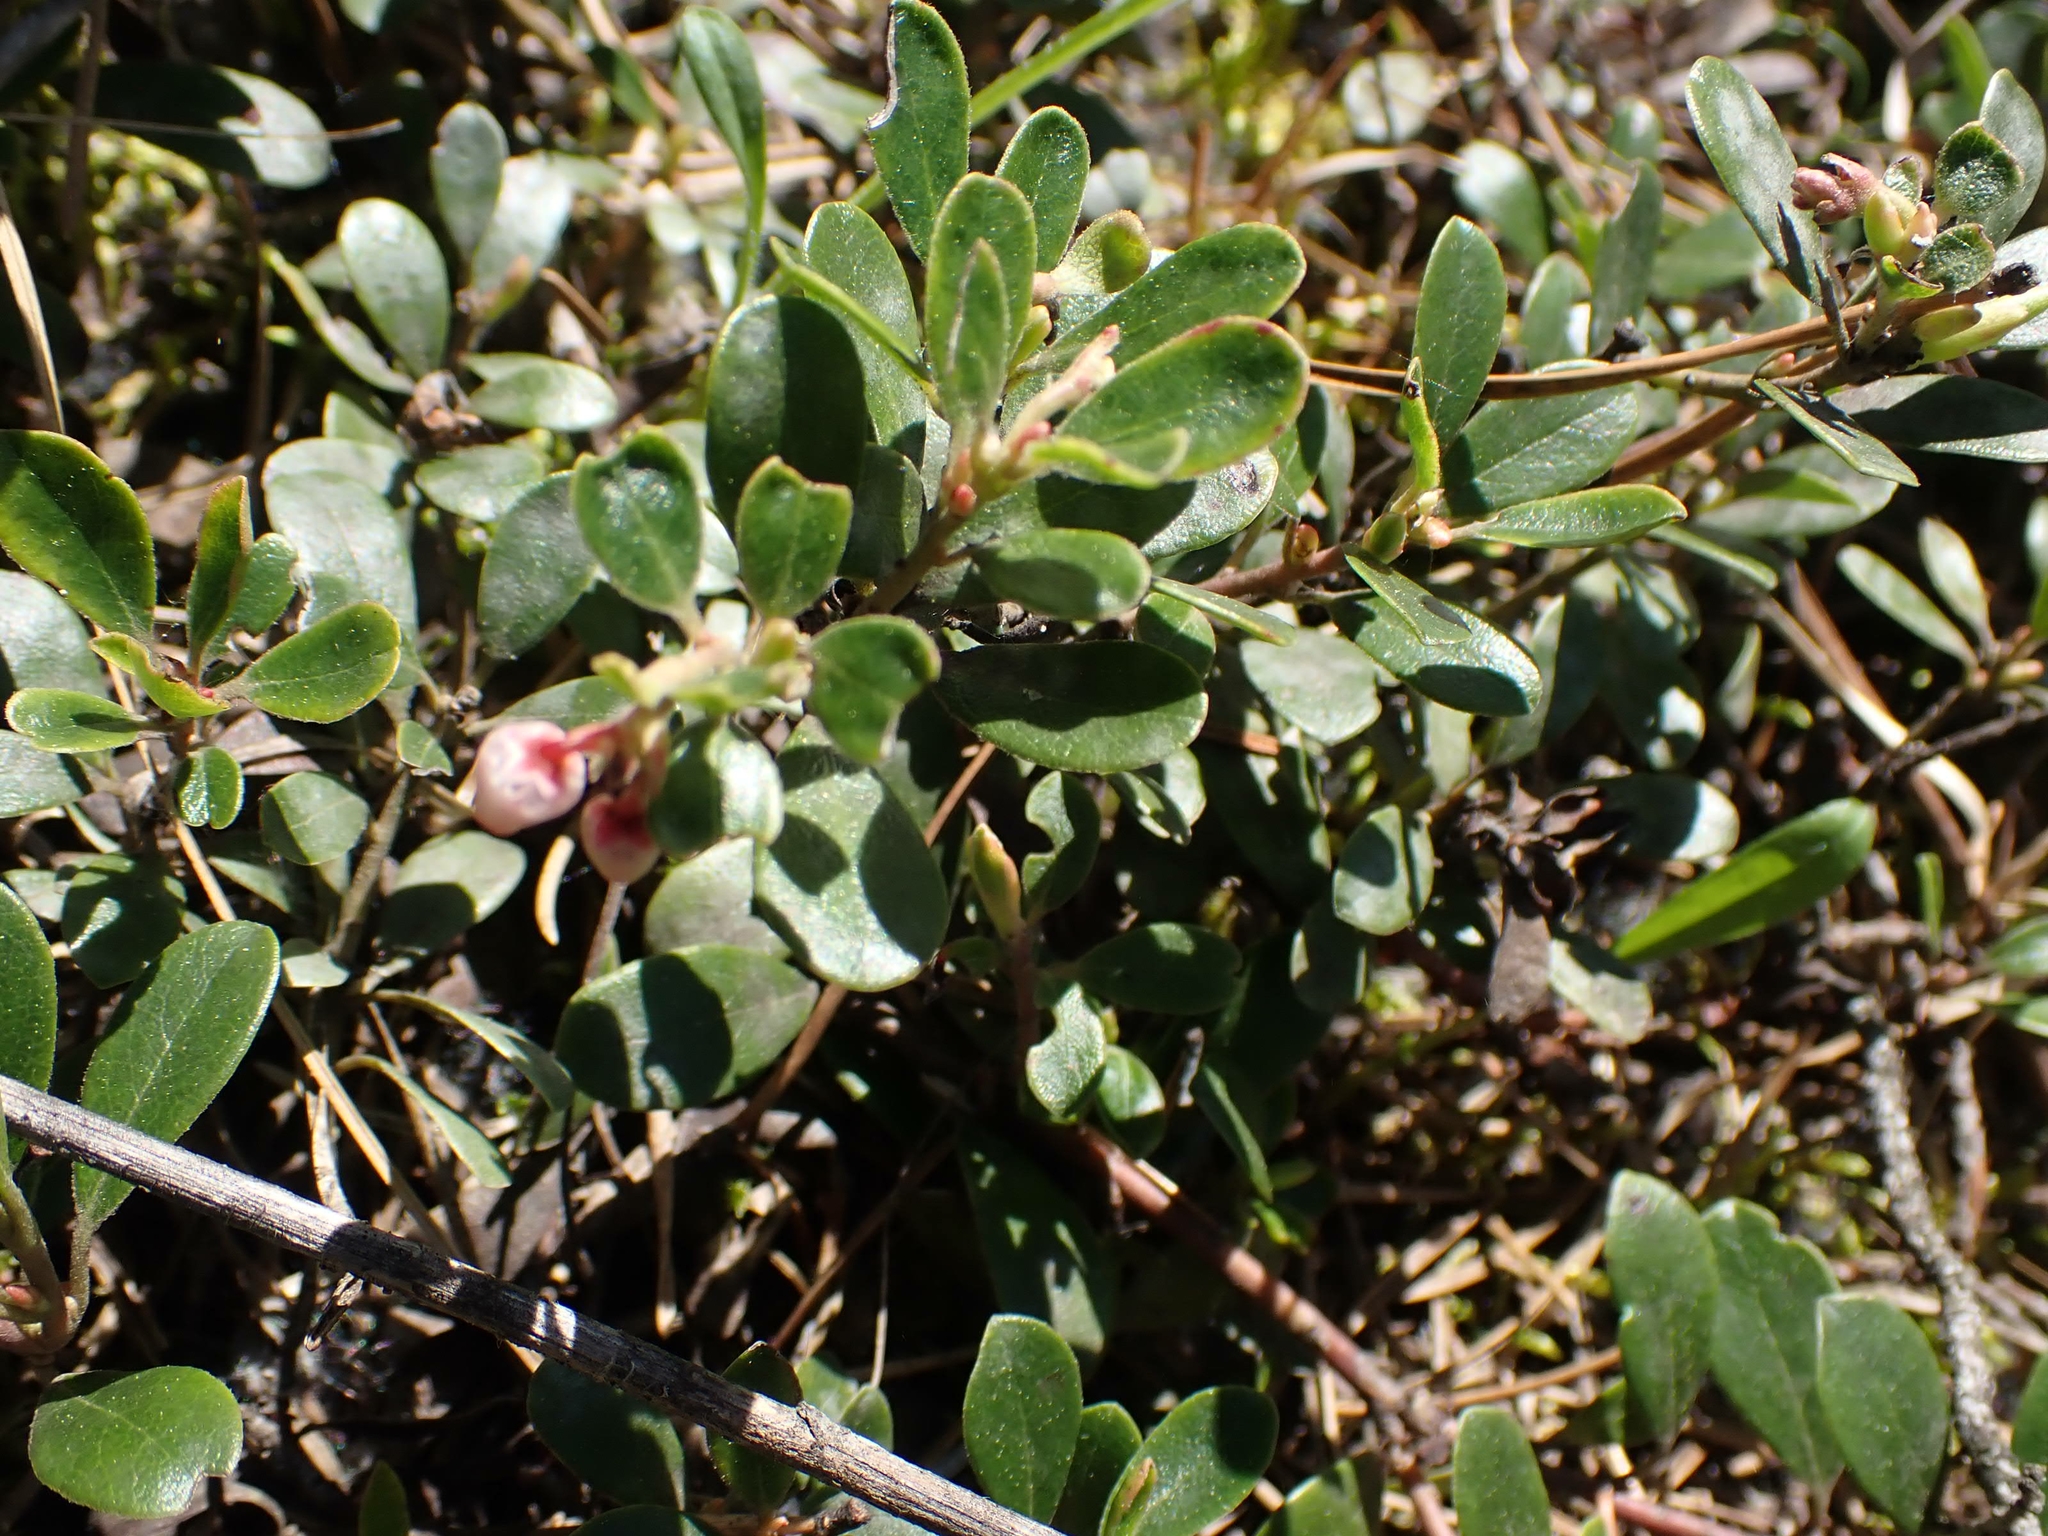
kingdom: Plantae
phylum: Tracheophyta
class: Magnoliopsida
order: Ericales
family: Ericaceae
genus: Arctostaphylos
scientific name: Arctostaphylos uva-ursi
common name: Bearberry
